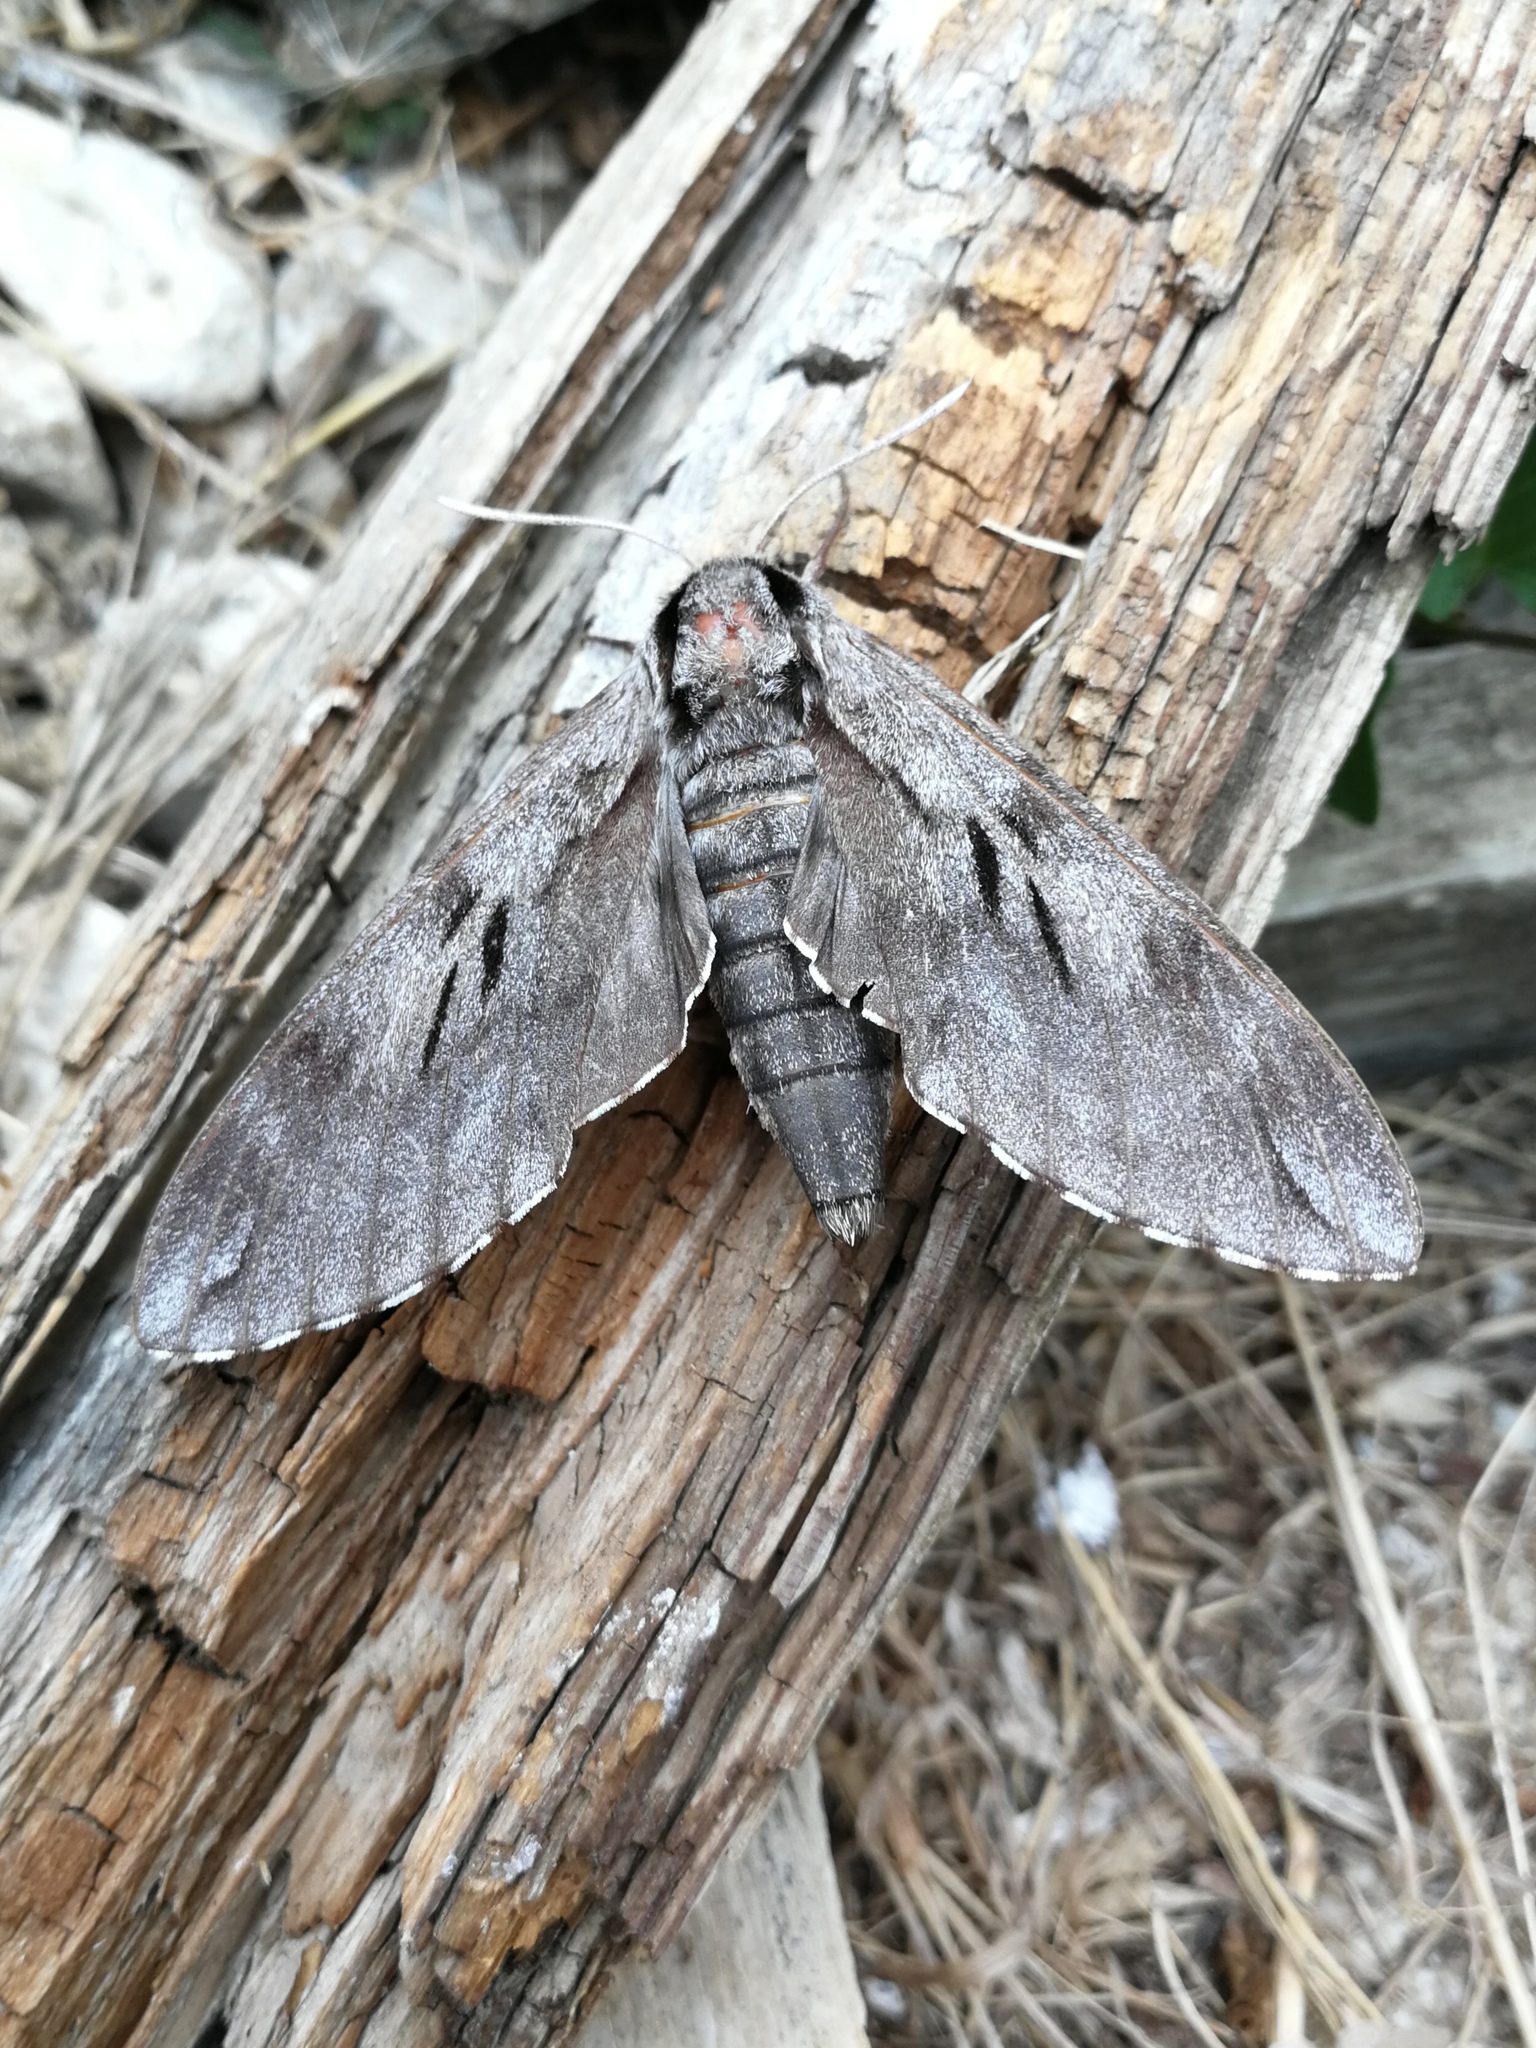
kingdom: Animalia
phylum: Arthropoda
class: Insecta
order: Lepidoptera
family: Sphingidae
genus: Sphinx
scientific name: Sphinx maurorum
